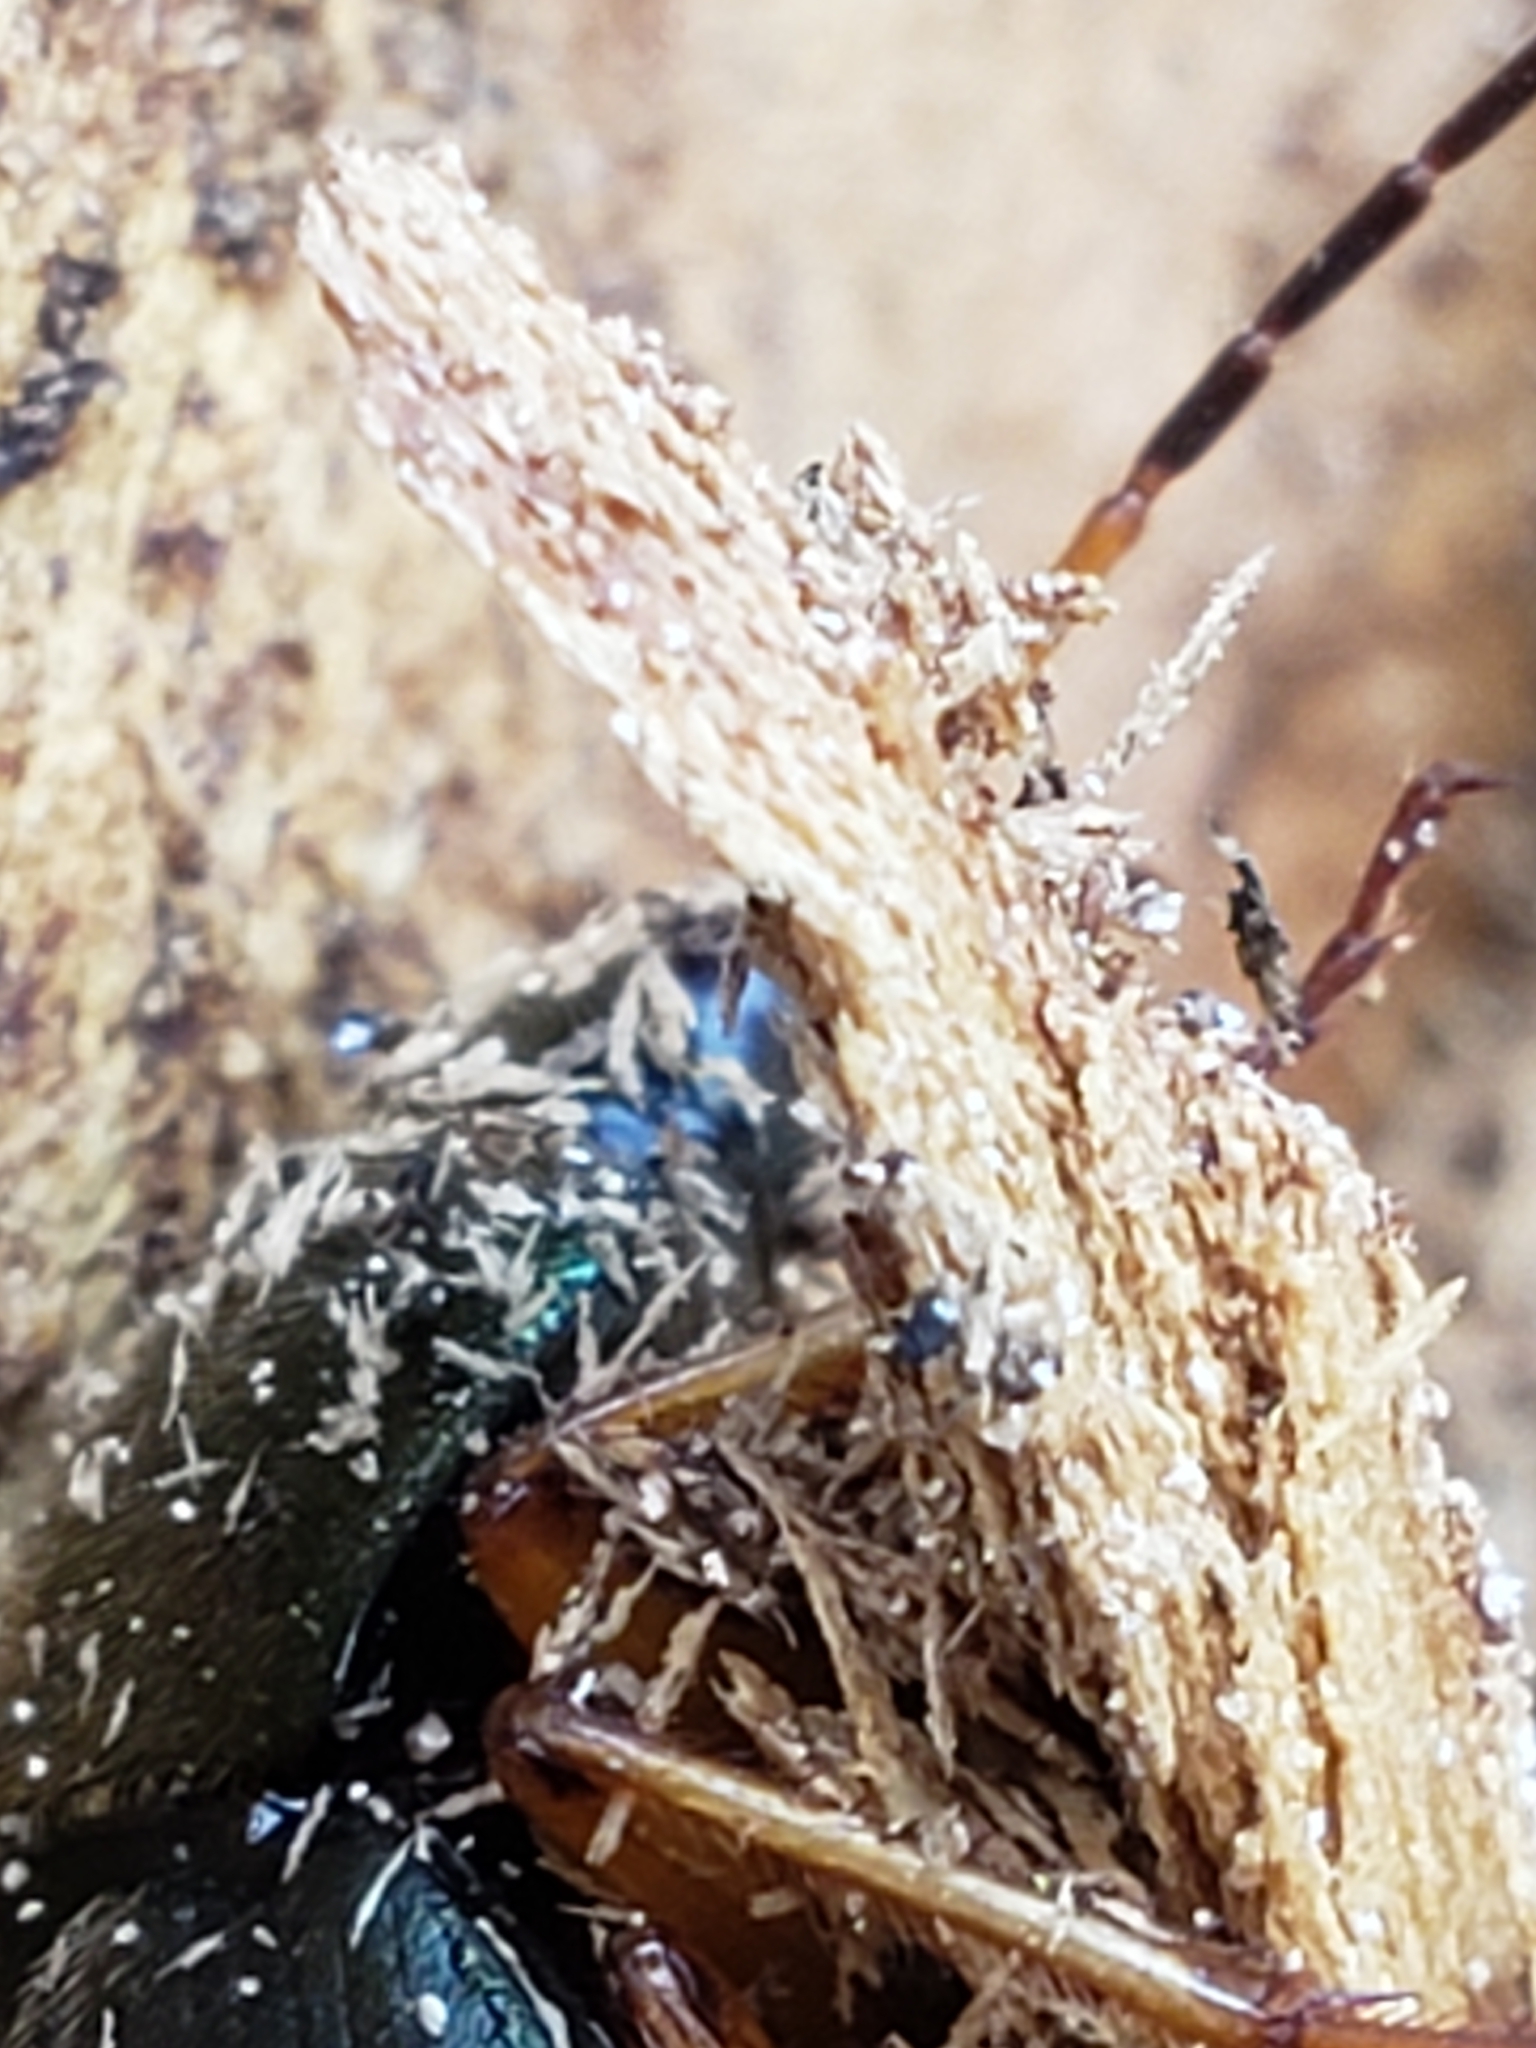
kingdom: Animalia
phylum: Arthropoda
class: Insecta
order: Coleoptera
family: Carabidae
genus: Chlaenius
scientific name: Chlaenius aestivus
